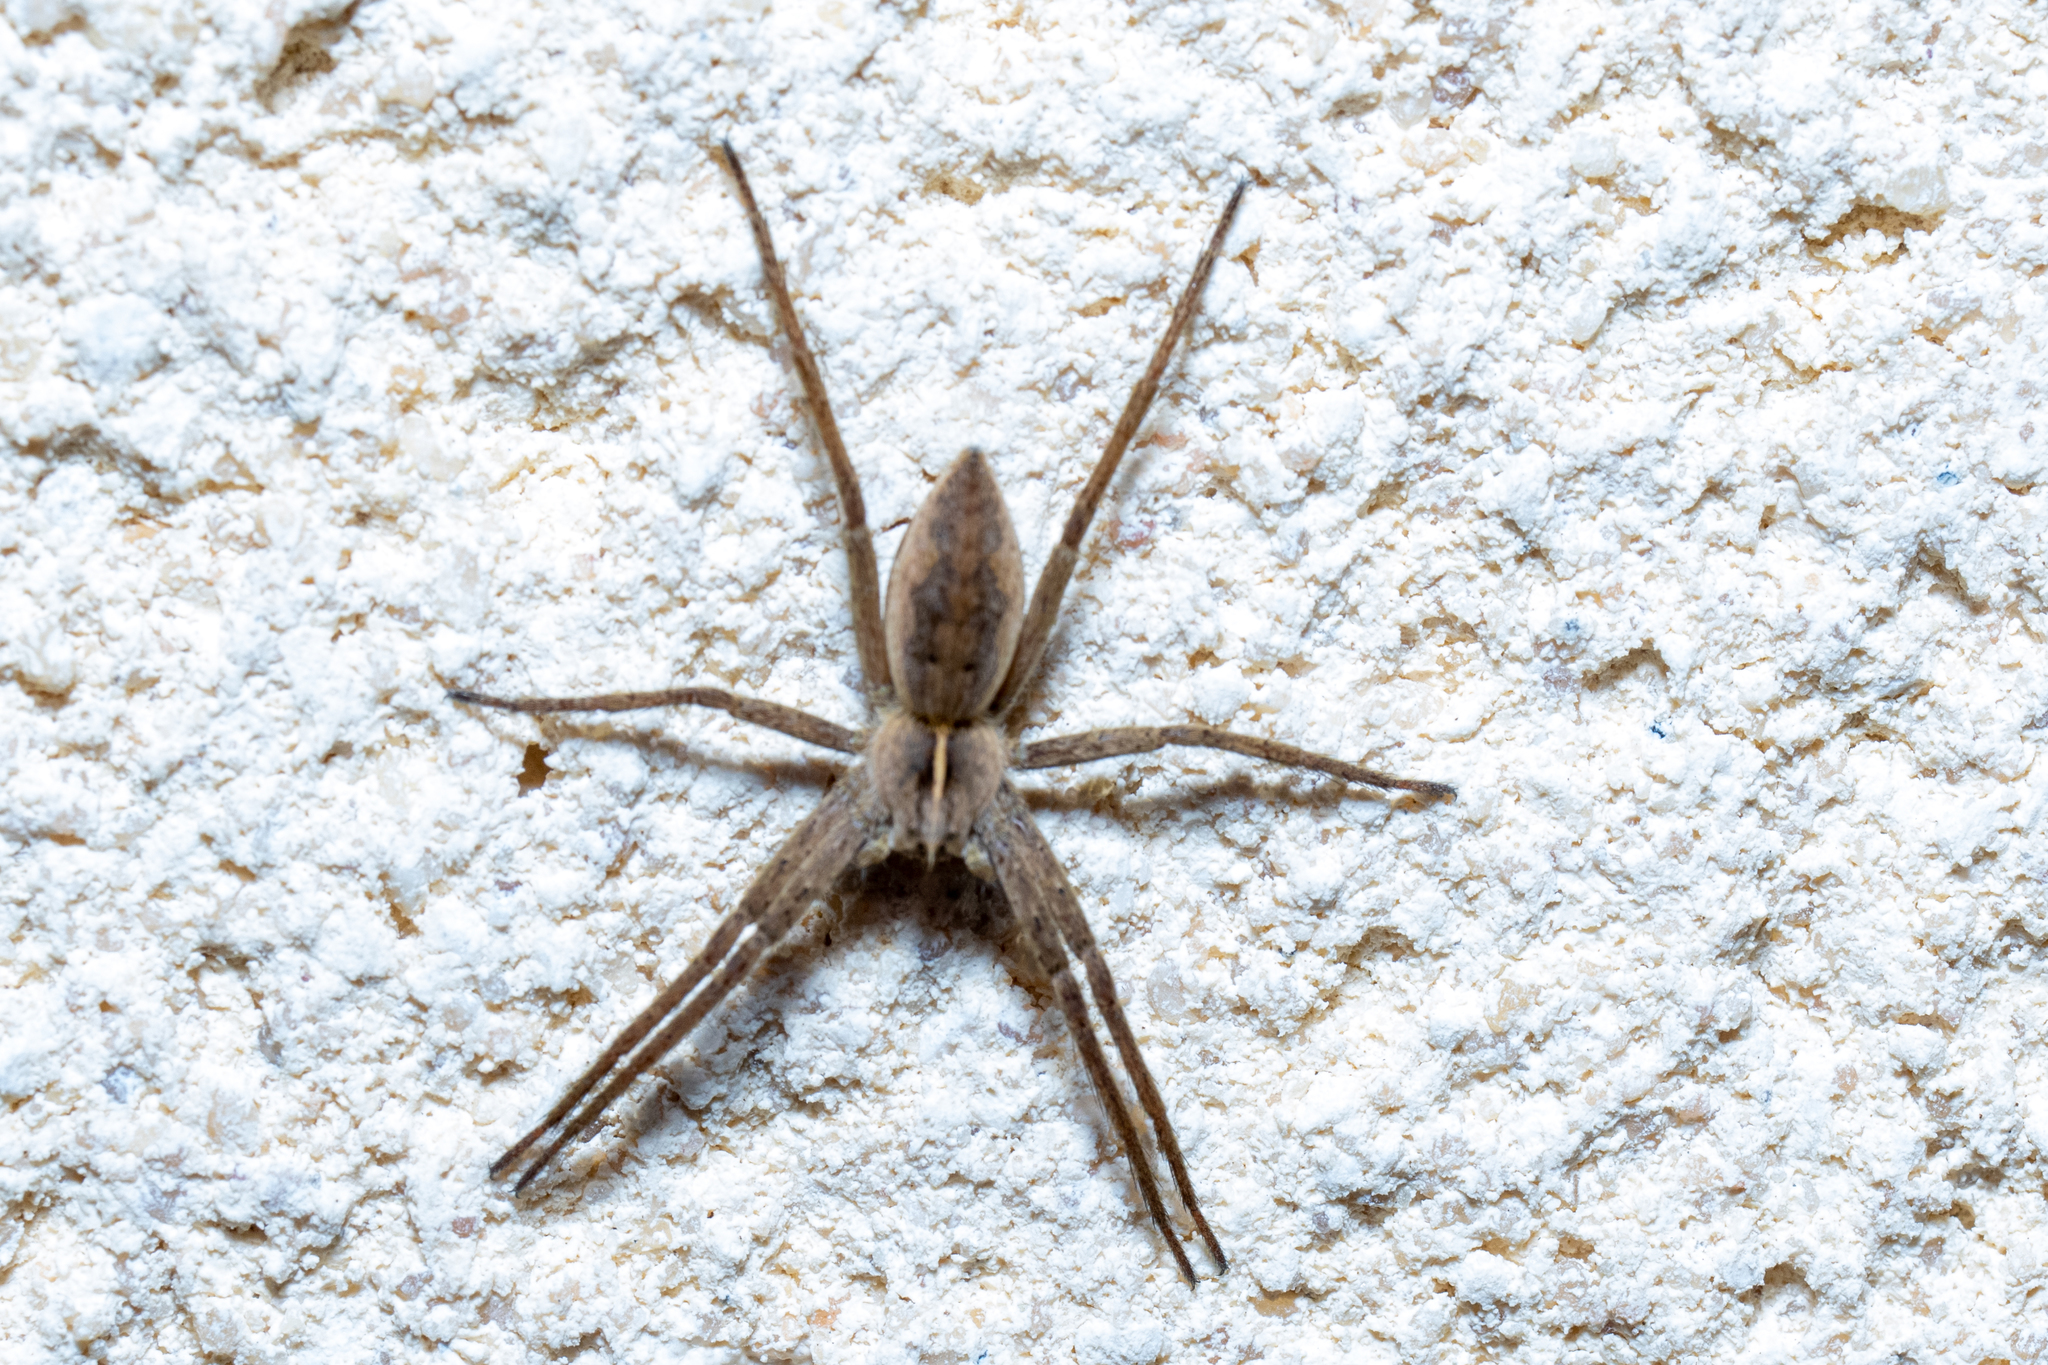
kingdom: Animalia
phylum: Arthropoda
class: Arachnida
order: Araneae
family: Pisauridae
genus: Pisaura
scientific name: Pisaura mirabilis
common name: Tent spider
